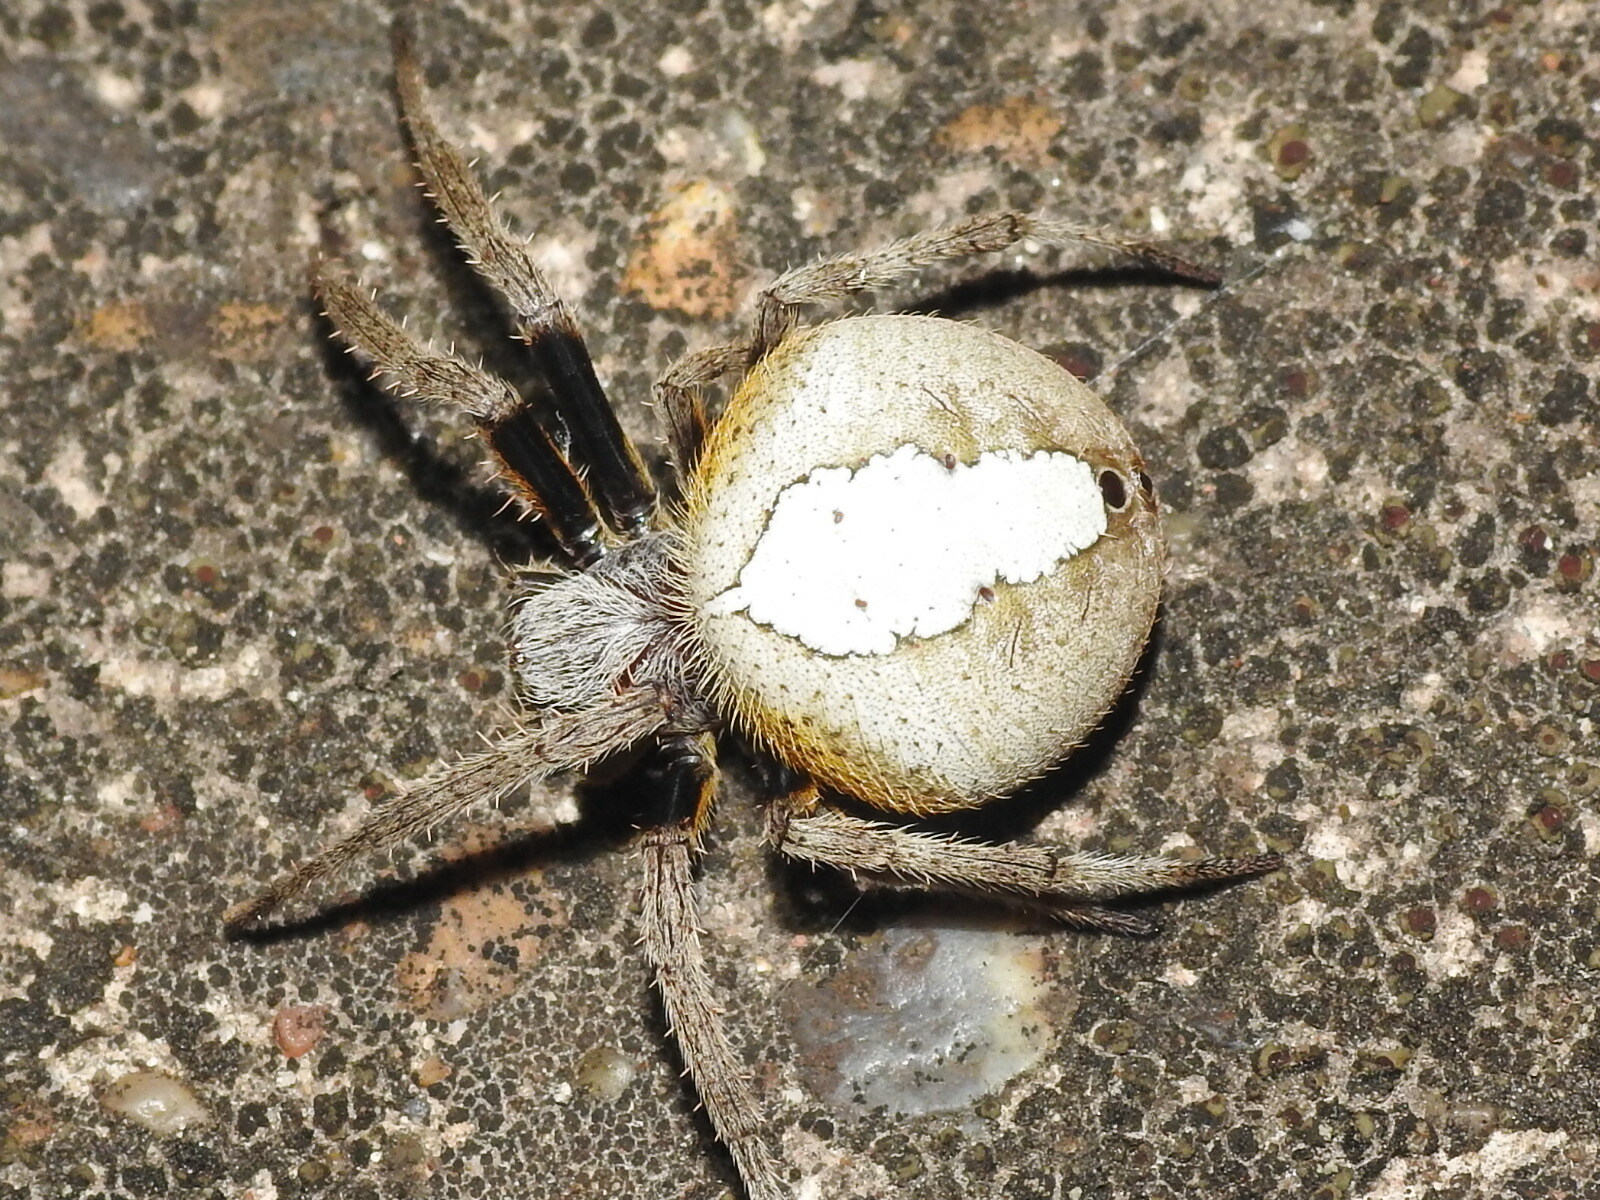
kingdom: Animalia
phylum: Arthropoda
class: Arachnida
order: Araneae
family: Araneidae
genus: Eriophora
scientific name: Eriophora ravilla
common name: Orb weavers
